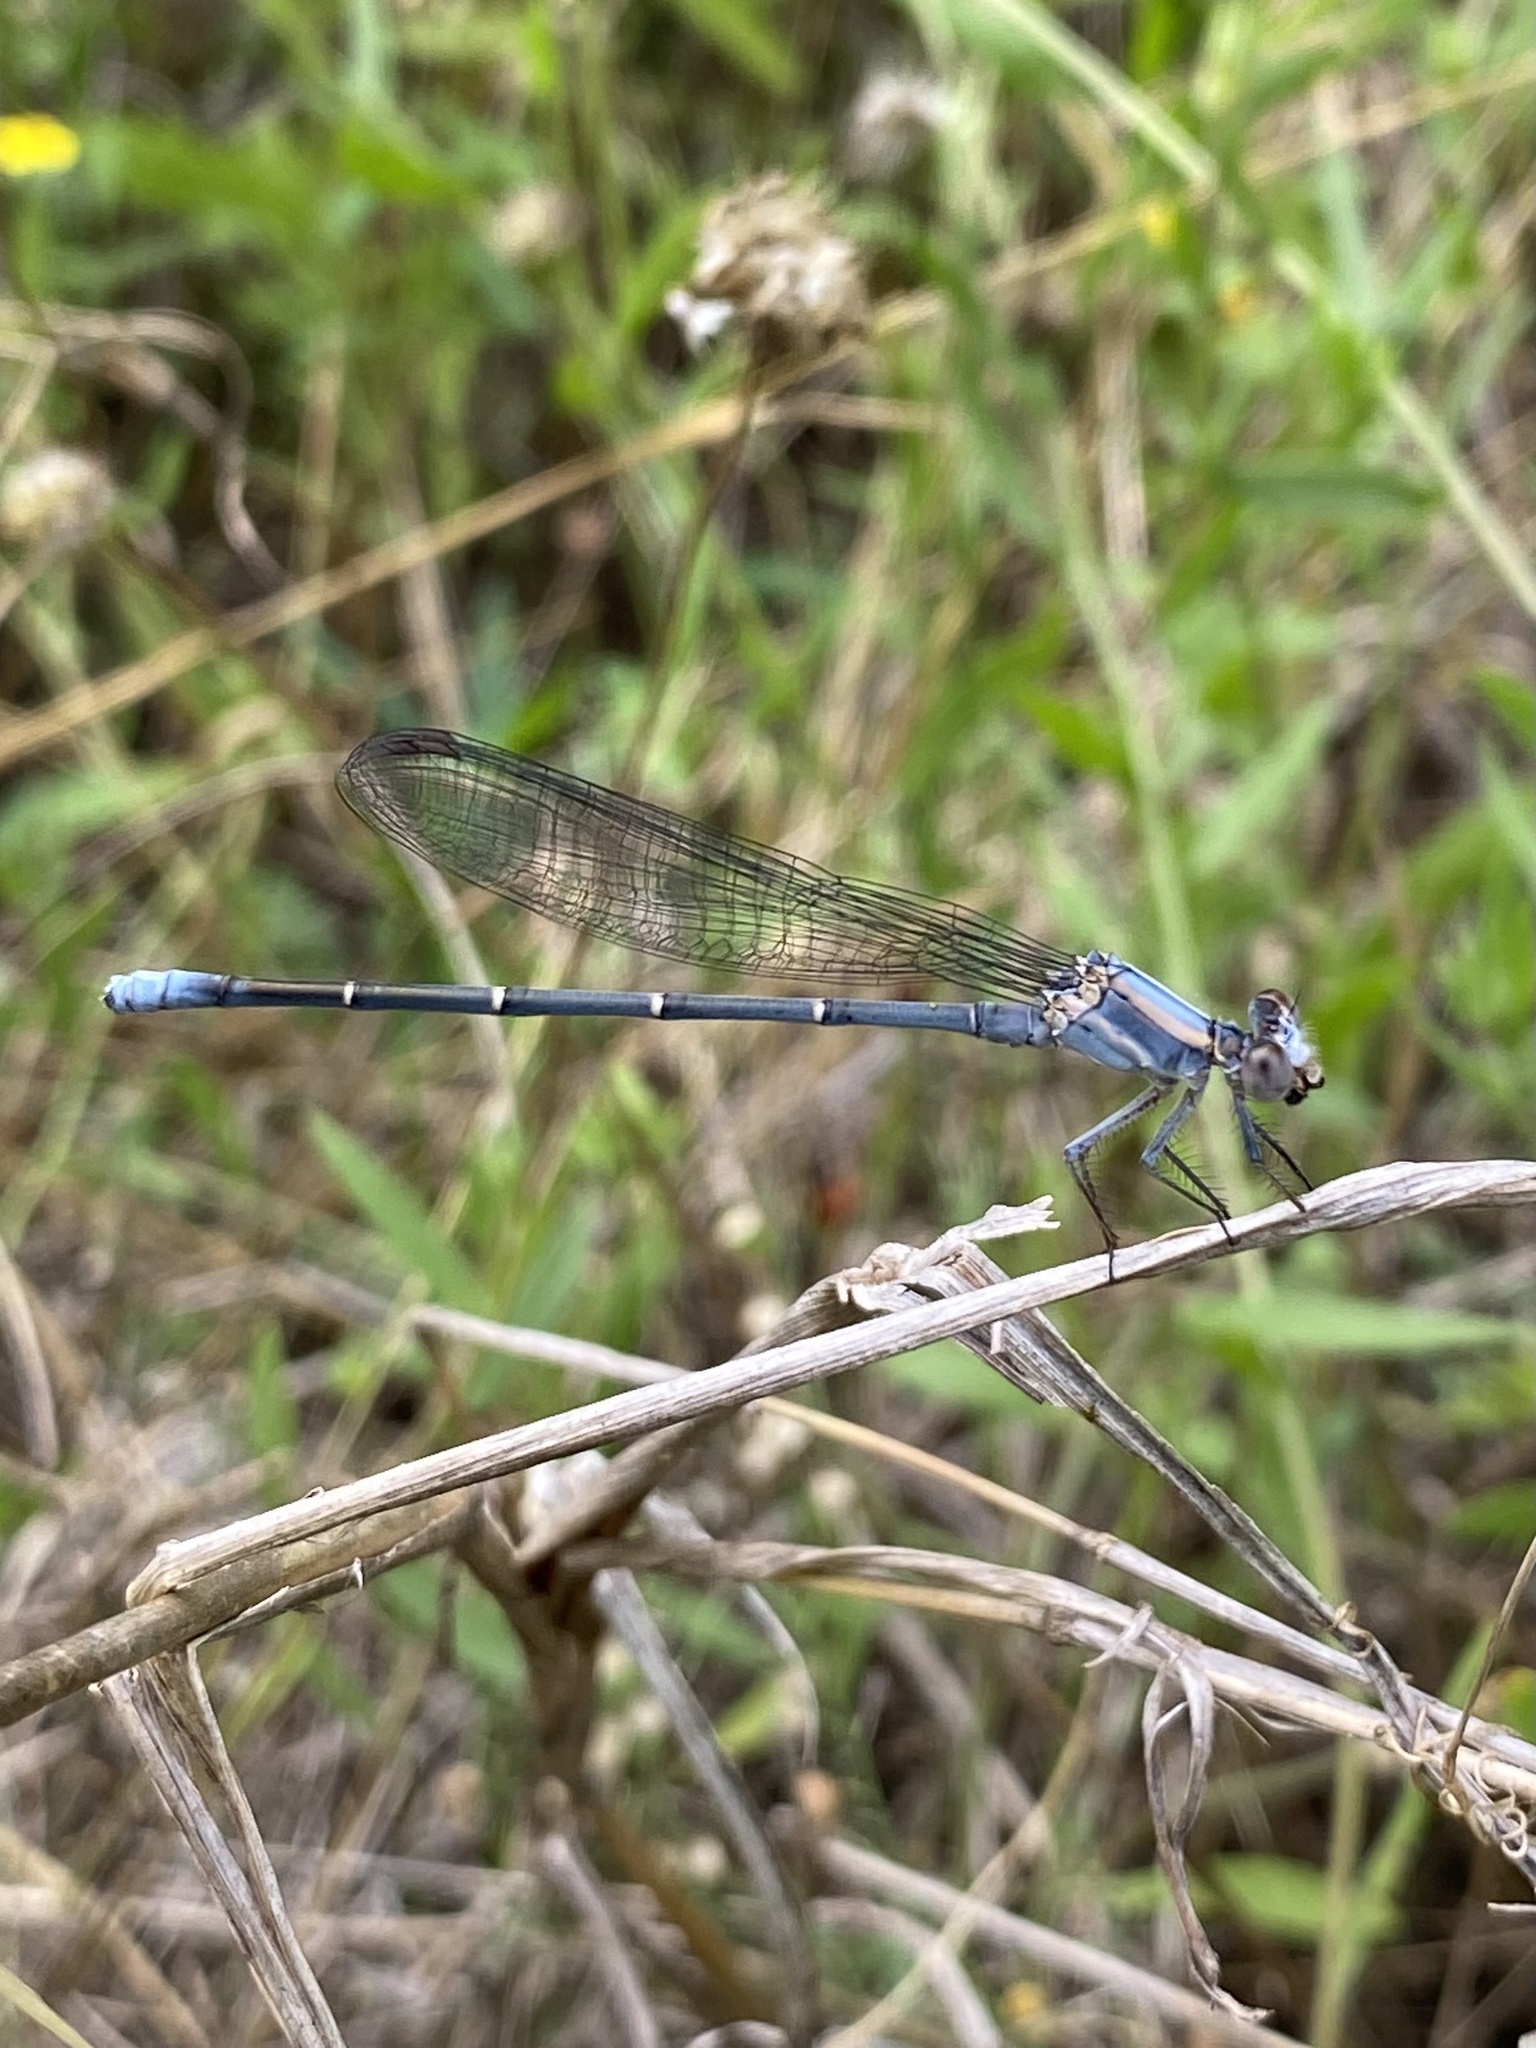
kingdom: Animalia
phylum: Arthropoda
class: Insecta
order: Odonata
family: Coenagrionidae
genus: Argia
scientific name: Argia moesta
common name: Powdered dancer
